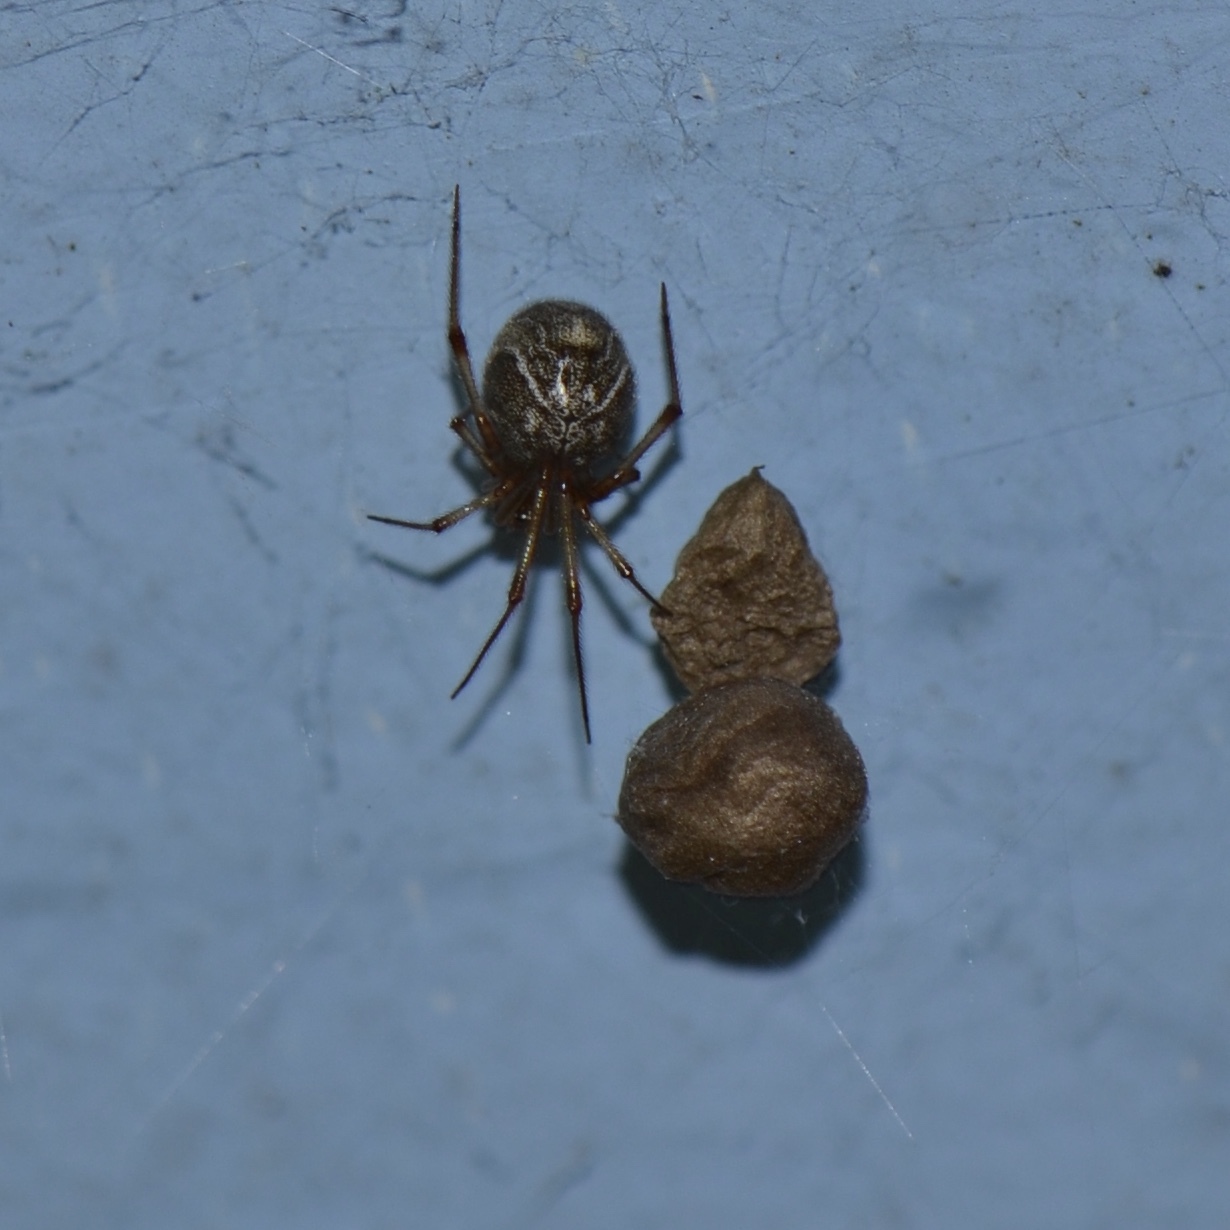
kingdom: Animalia
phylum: Arthropoda
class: Arachnida
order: Araneae
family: Theridiidae
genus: Parasteatoda
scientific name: Parasteatoda tepidariorum
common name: Common house spider
